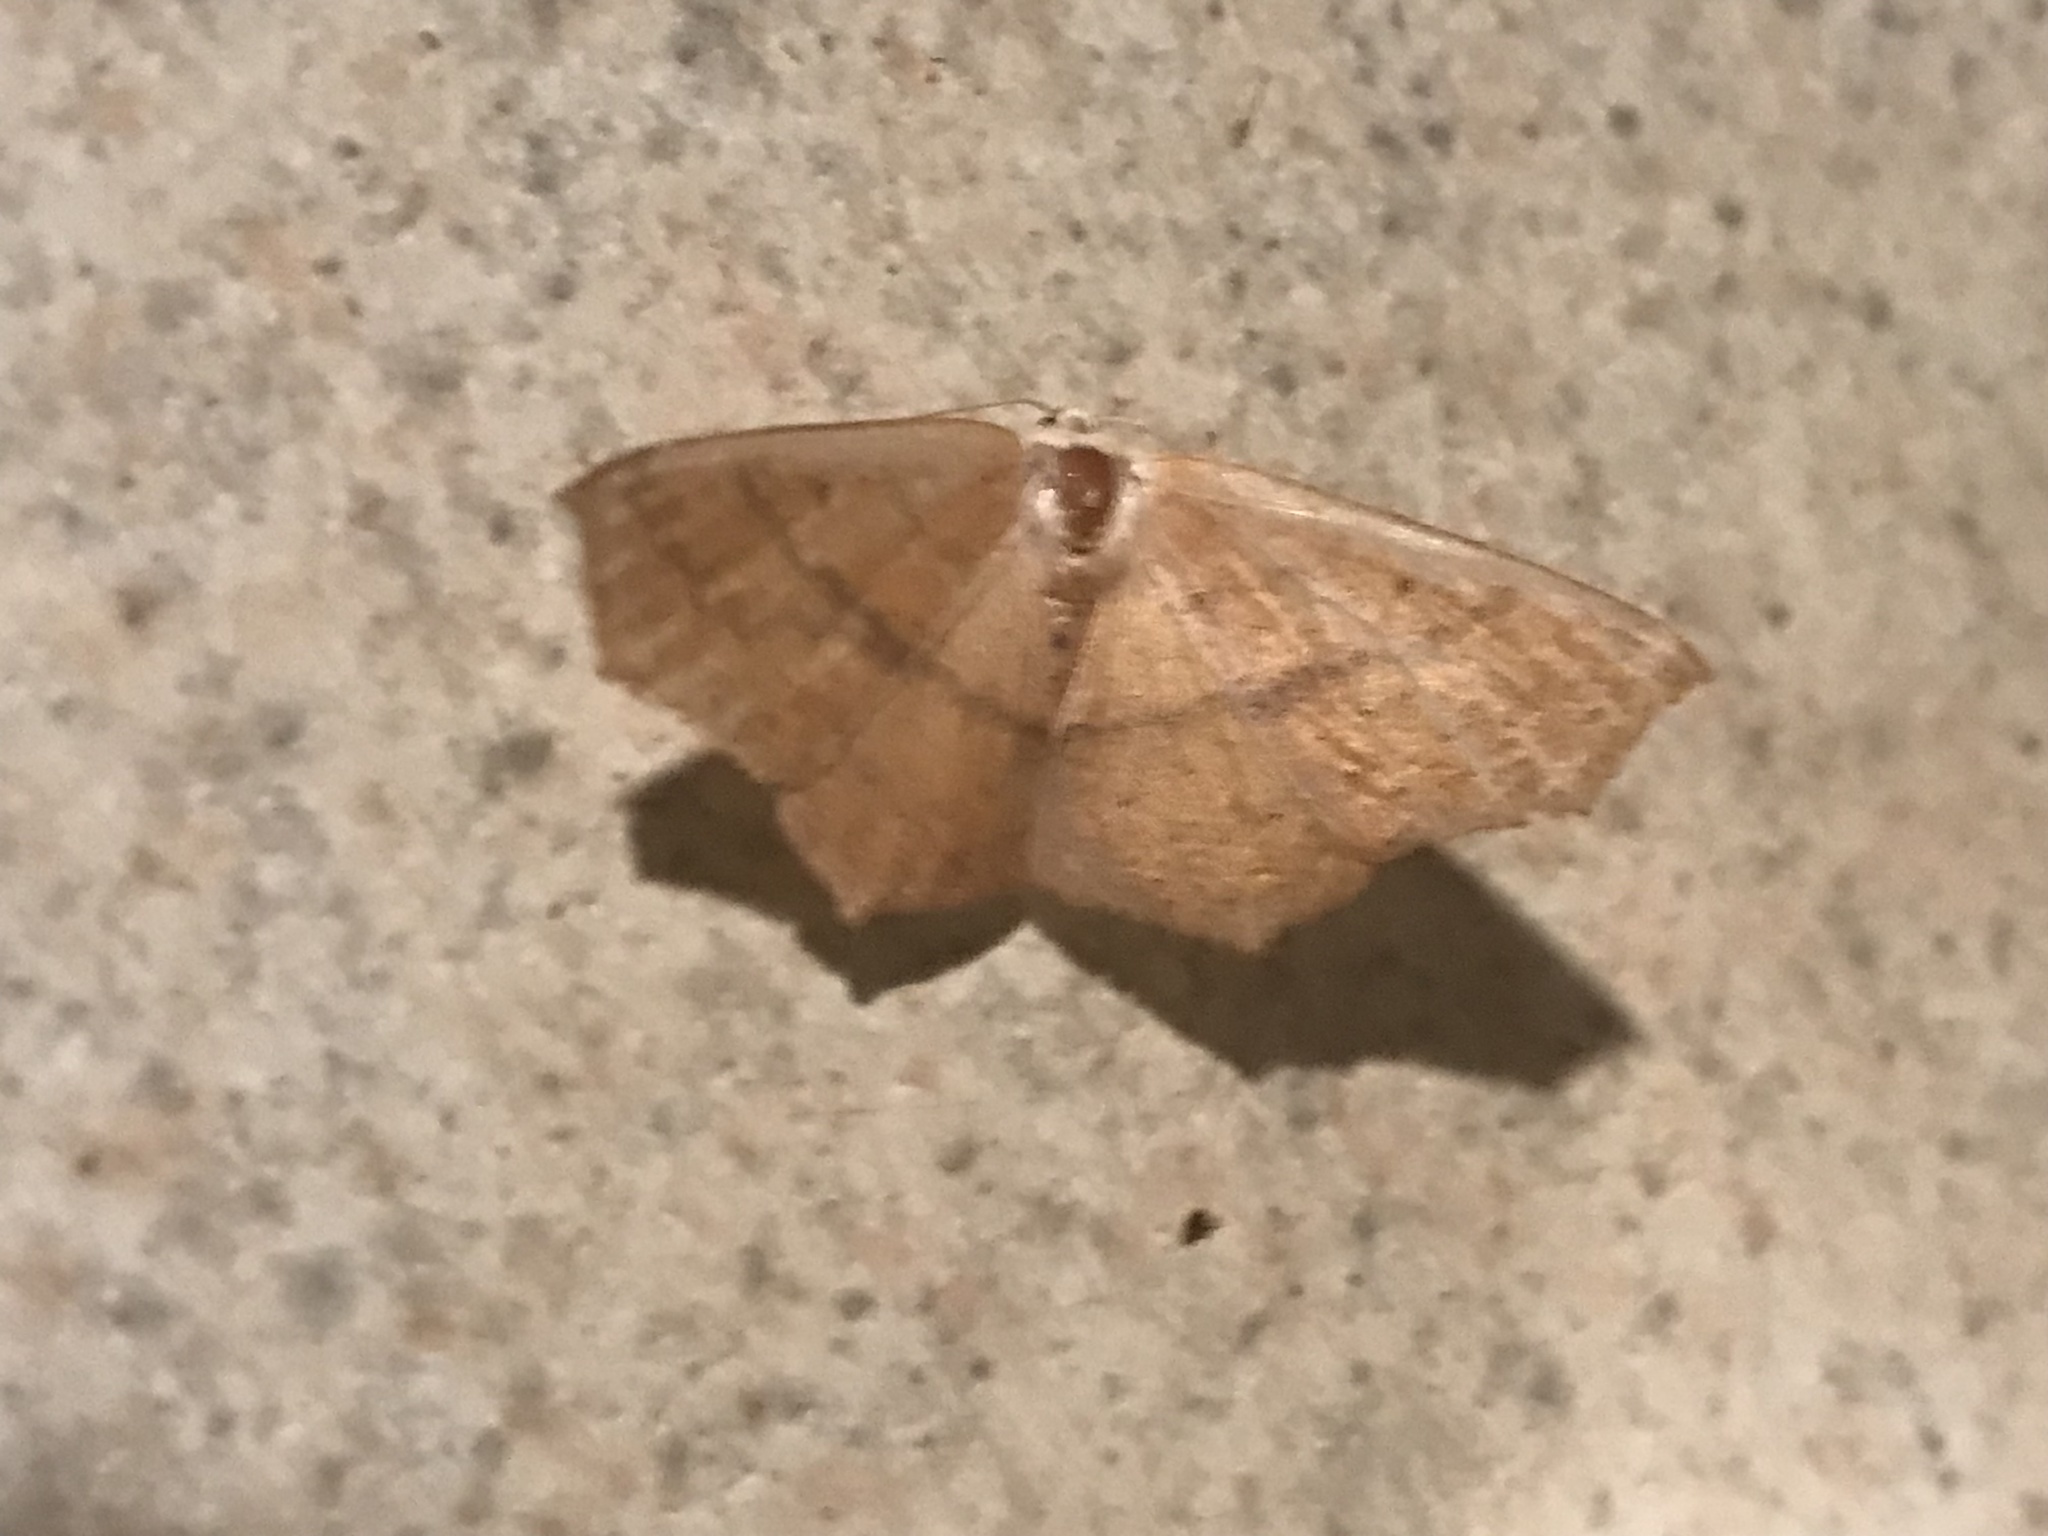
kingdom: Animalia
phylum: Arthropoda
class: Insecta
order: Lepidoptera
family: Geometridae
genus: Sabulodes
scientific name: Sabulodes aegrotata
